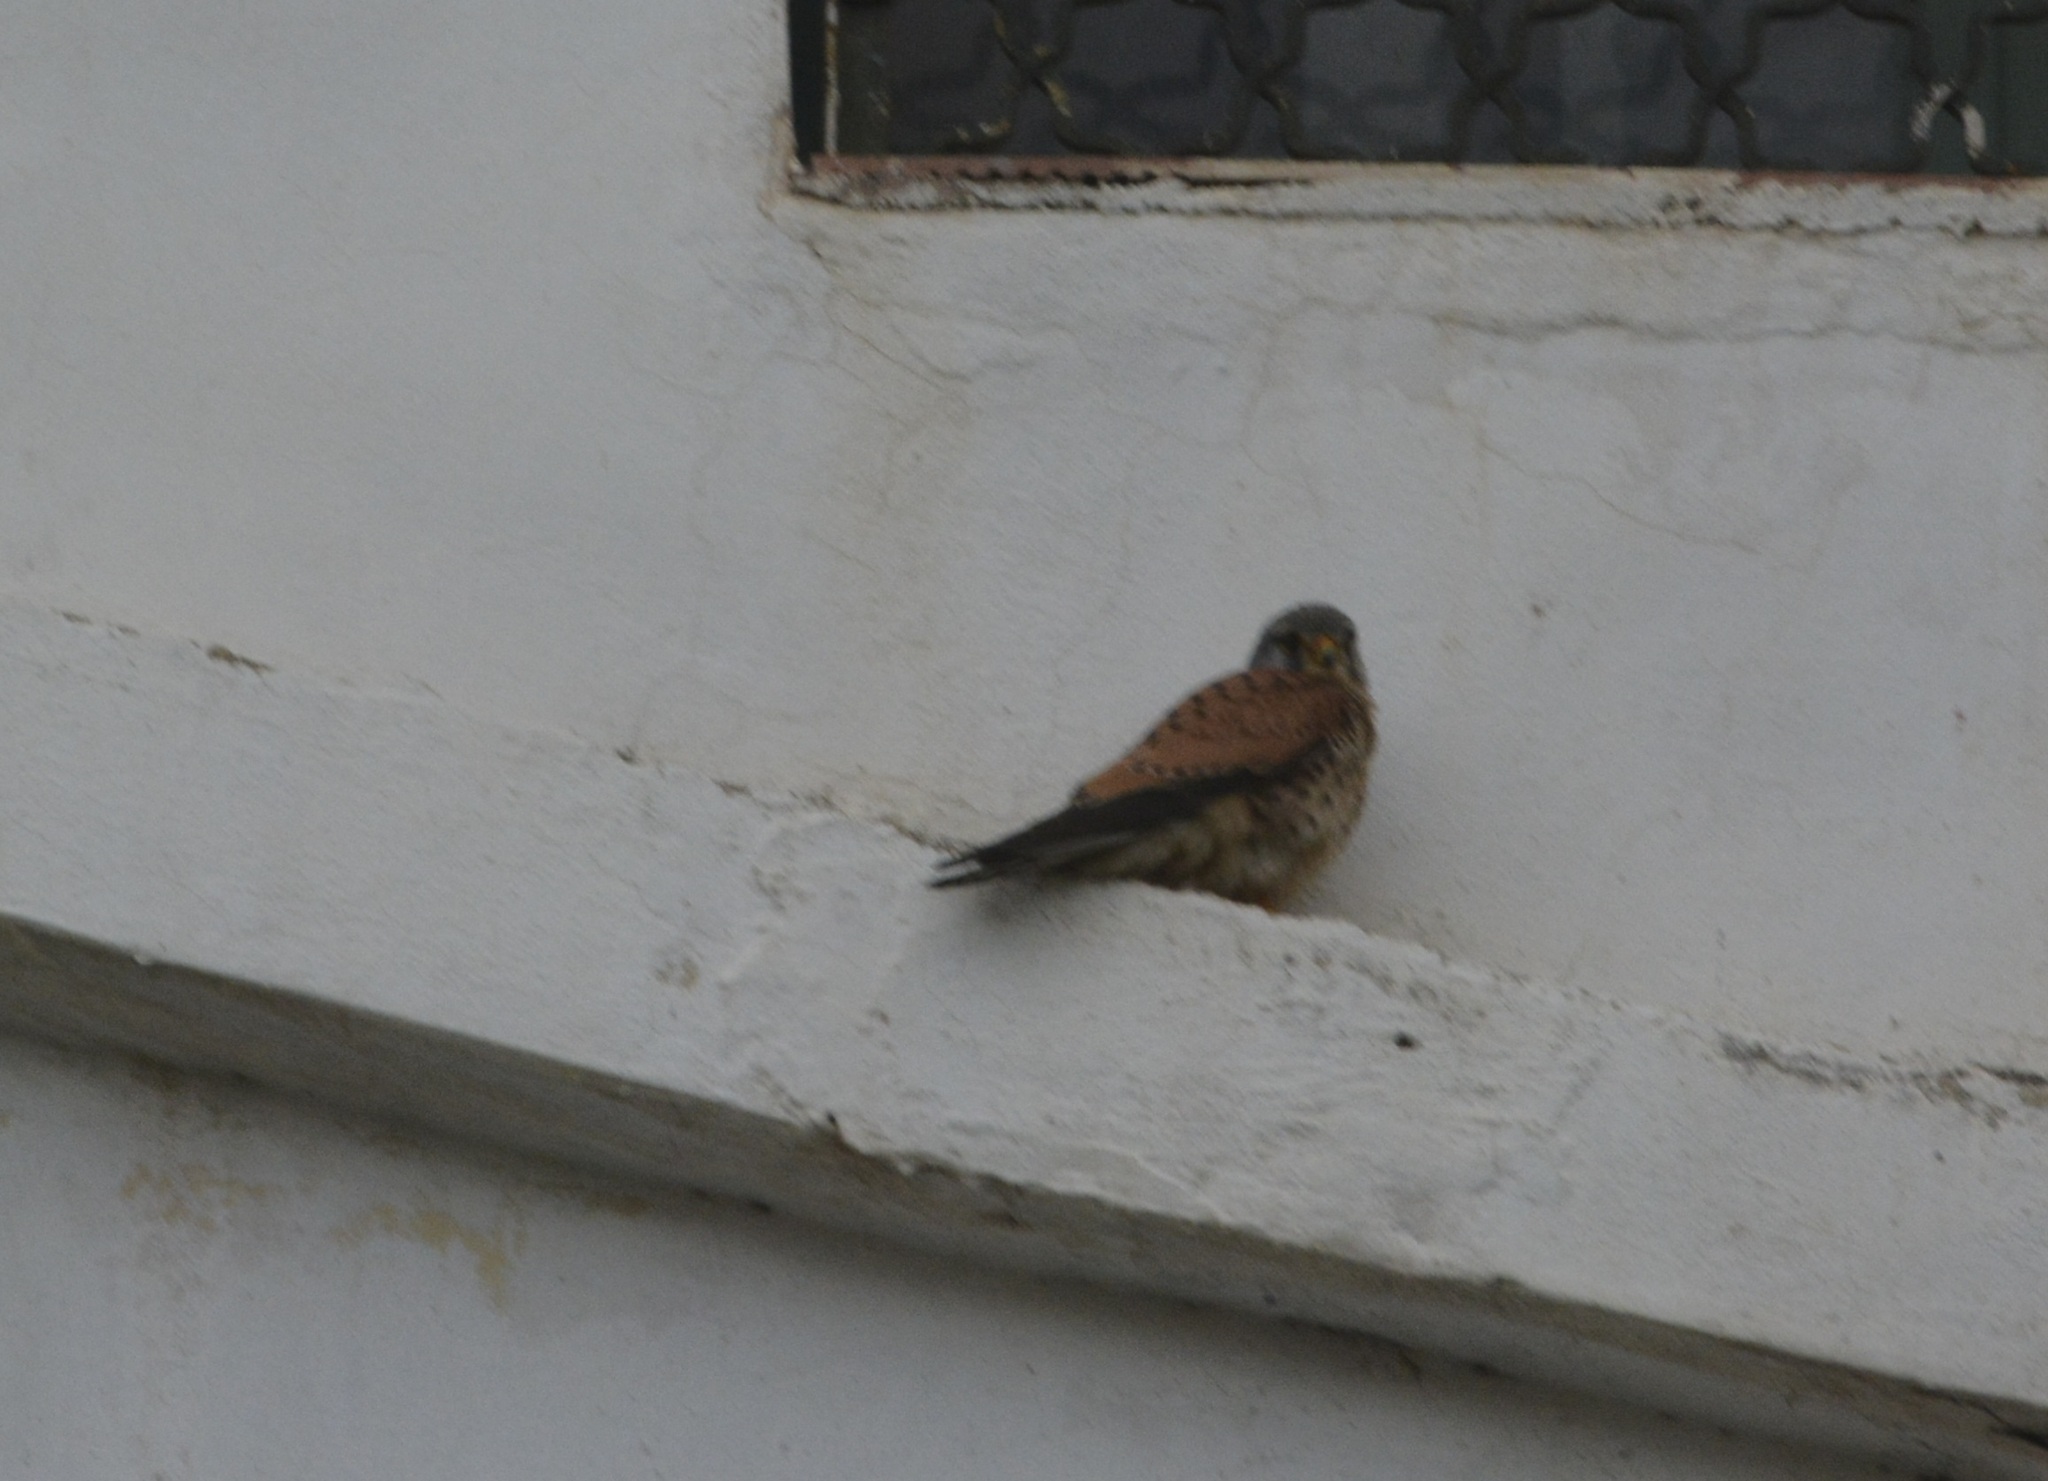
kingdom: Animalia
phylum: Chordata
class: Aves
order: Falconiformes
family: Falconidae
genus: Falco
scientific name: Falco tinnunculus
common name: Common kestrel
